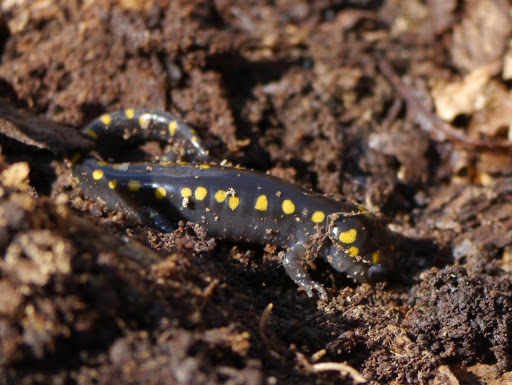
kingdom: Animalia
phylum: Chordata
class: Amphibia
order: Caudata
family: Ambystomatidae
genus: Ambystoma
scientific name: Ambystoma maculatum
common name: Spotted salamander
